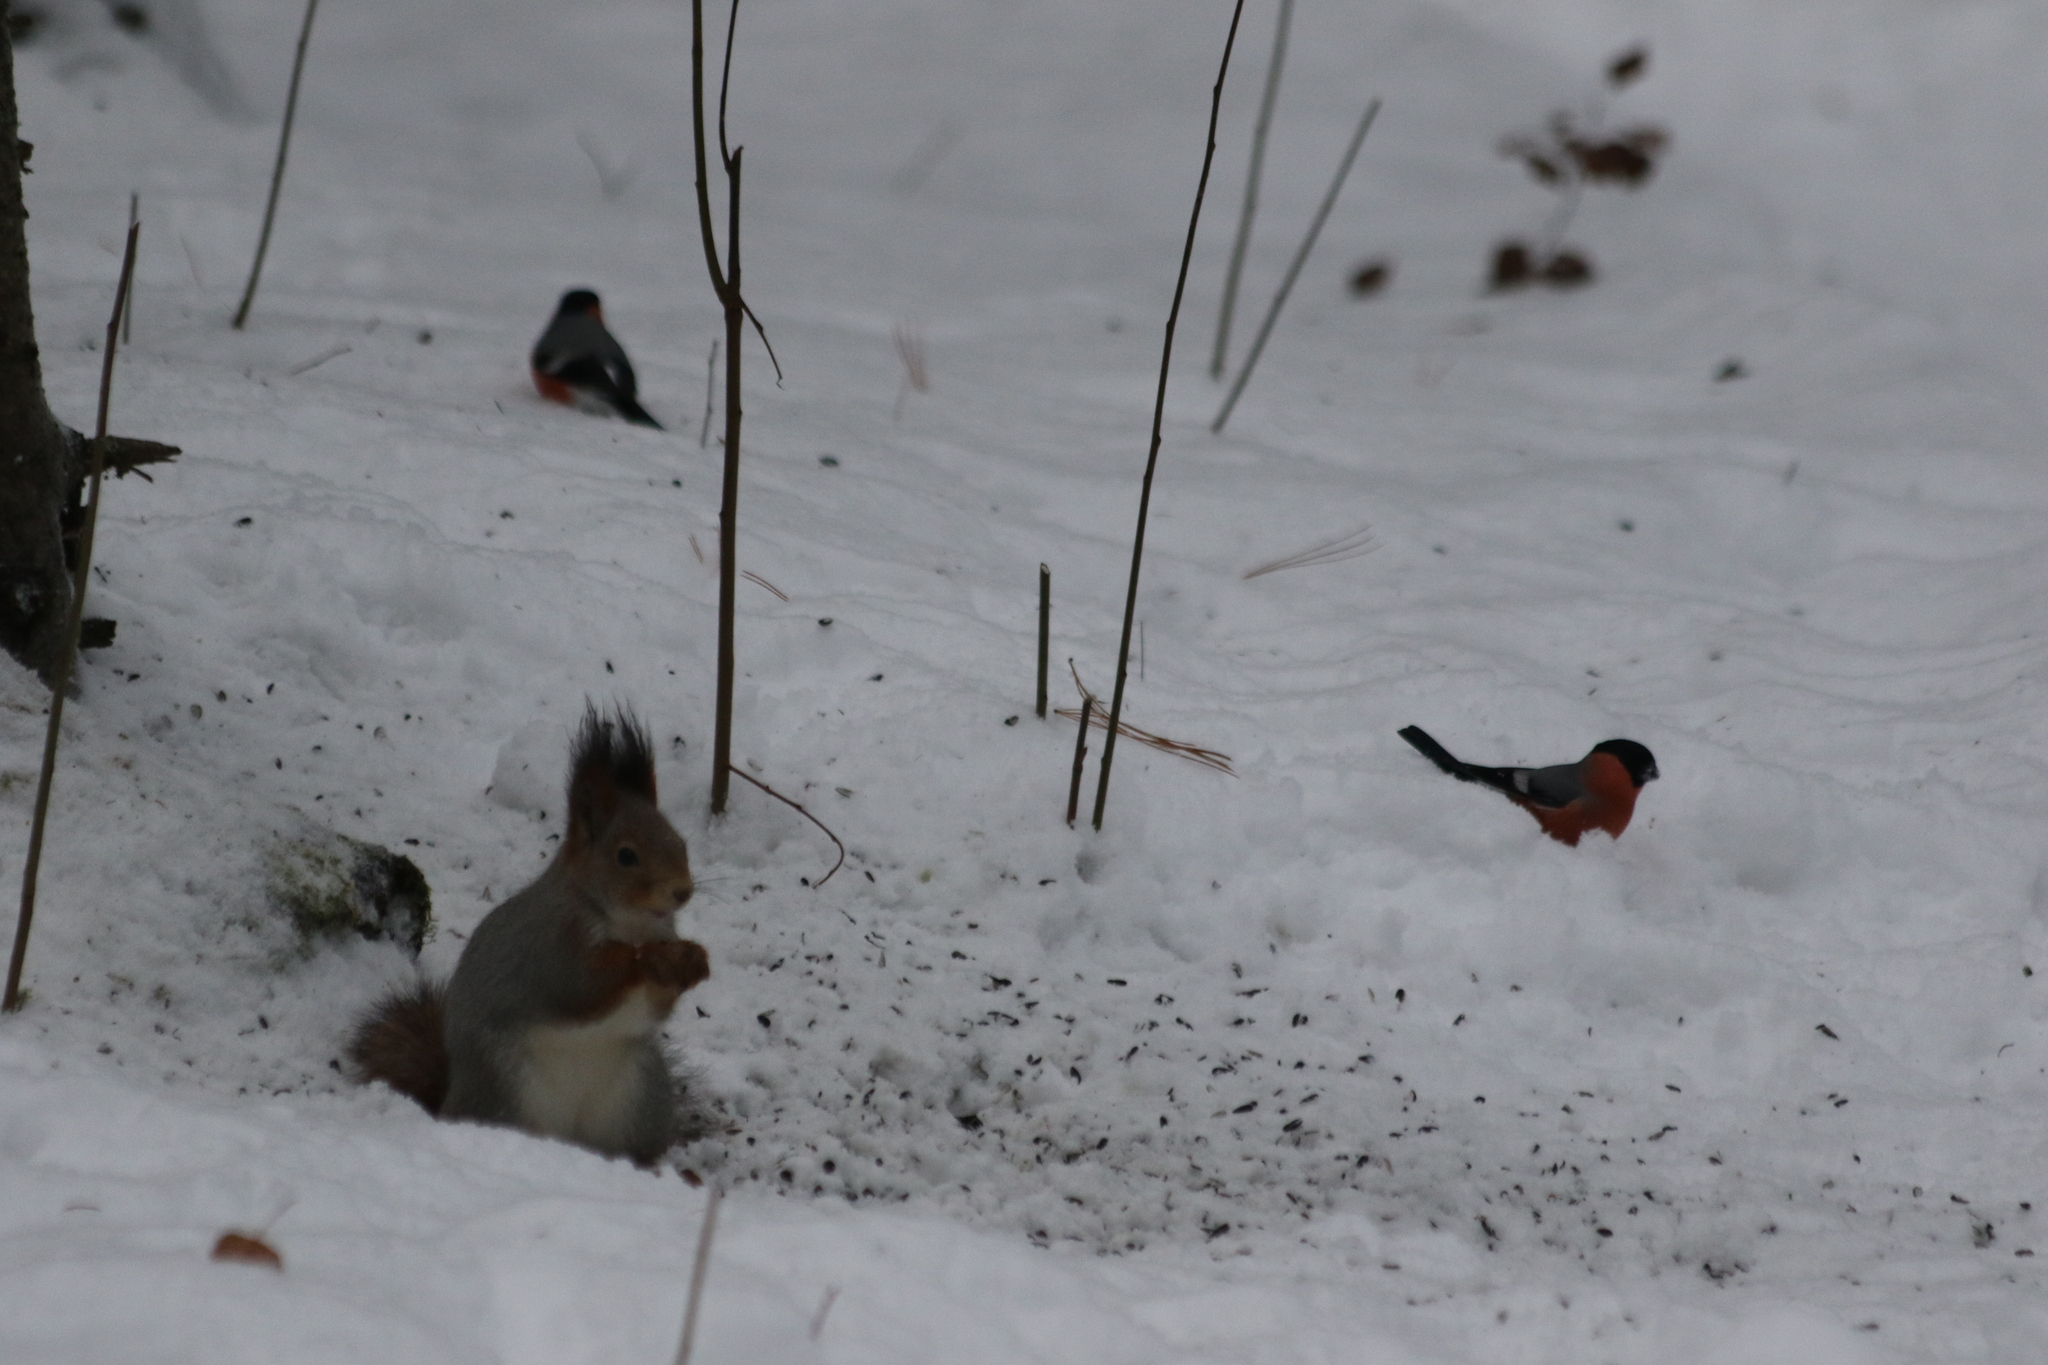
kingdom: Animalia
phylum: Chordata
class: Mammalia
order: Rodentia
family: Sciuridae
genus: Sciurus
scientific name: Sciurus vulgaris
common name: Eurasian red squirrel
